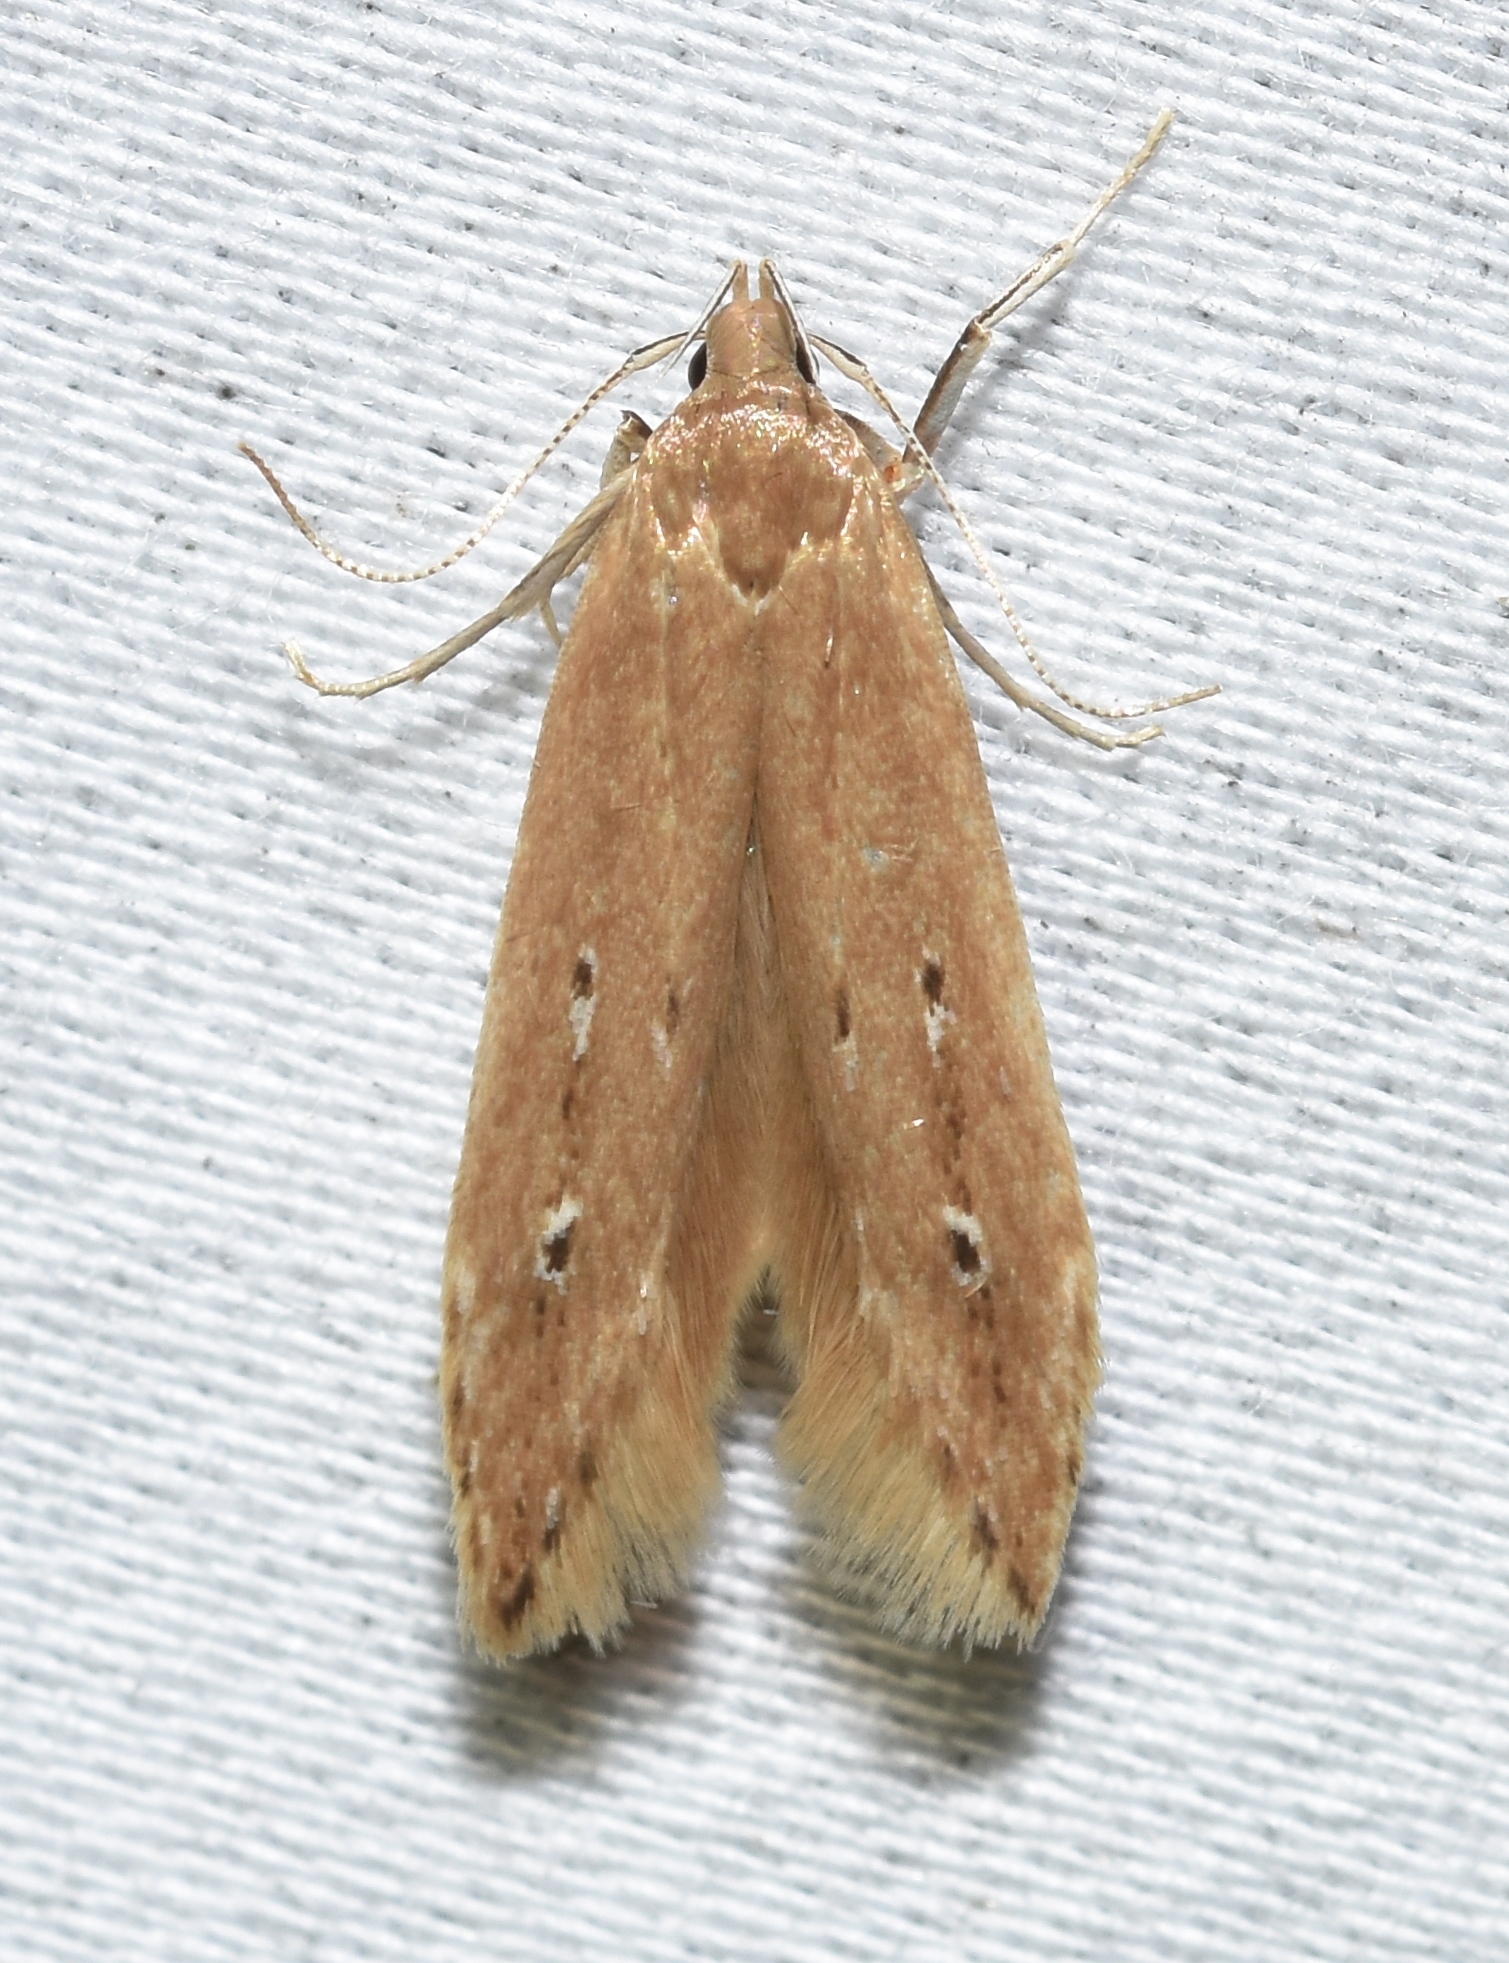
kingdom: Animalia
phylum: Arthropoda
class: Insecta
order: Lepidoptera
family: Cosmopterigidae
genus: Limnaecia
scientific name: Limnaecia phragmitella
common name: Bulrush cosmet
